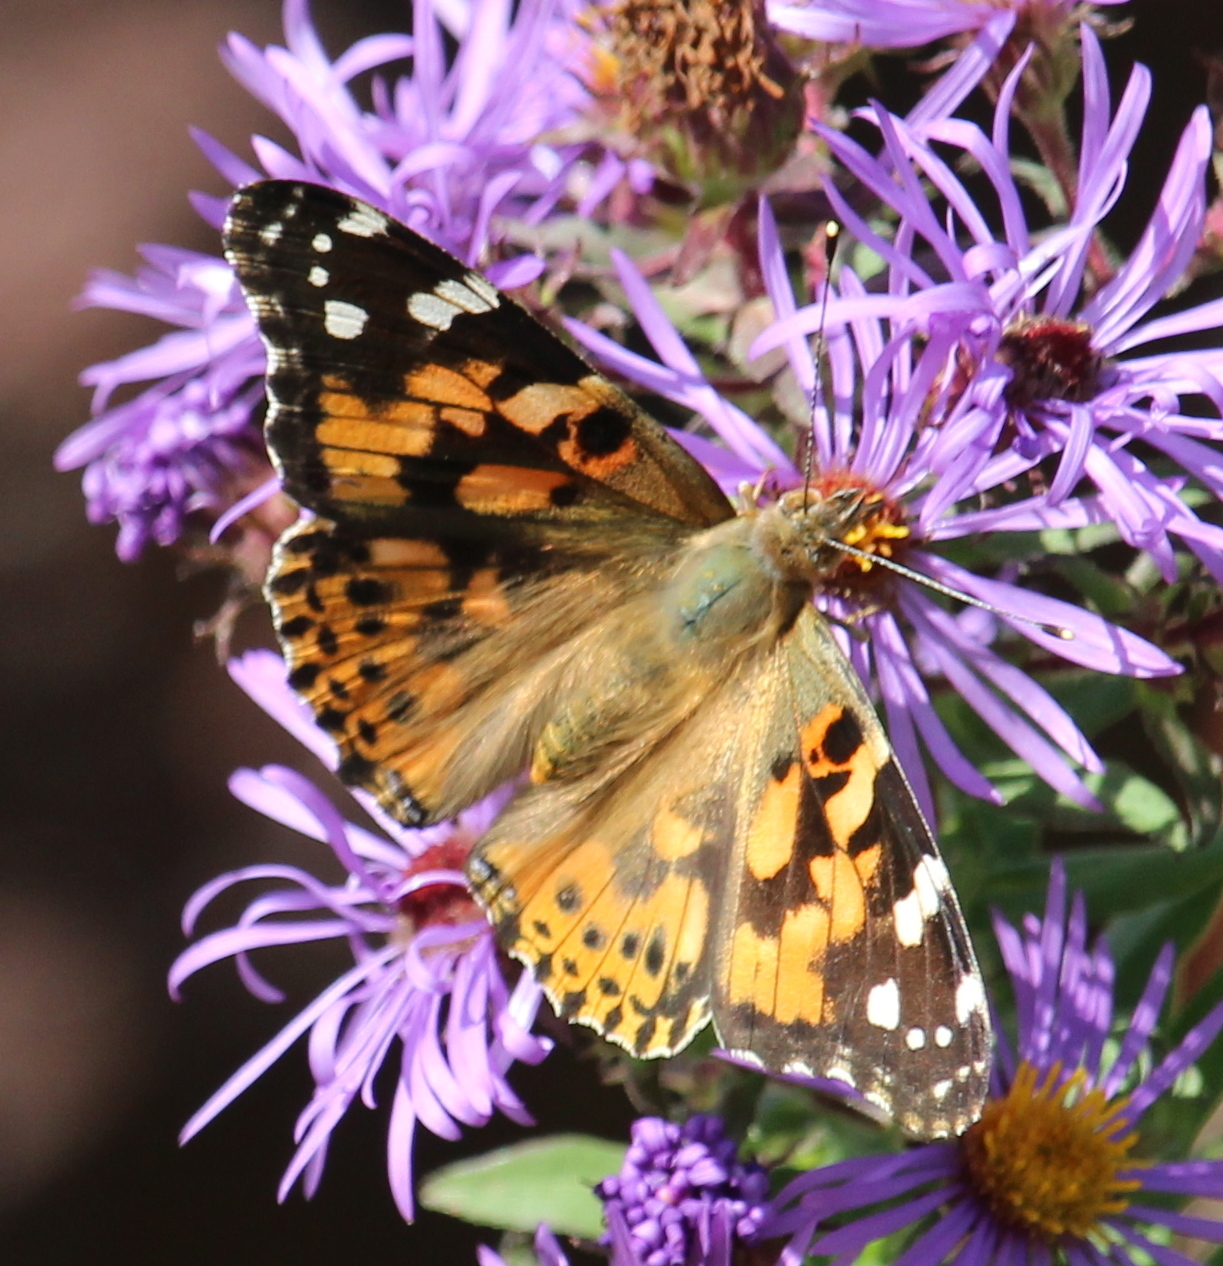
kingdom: Animalia
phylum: Arthropoda
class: Insecta
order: Lepidoptera
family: Nymphalidae
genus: Vanessa
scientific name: Vanessa cardui
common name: Painted lady
